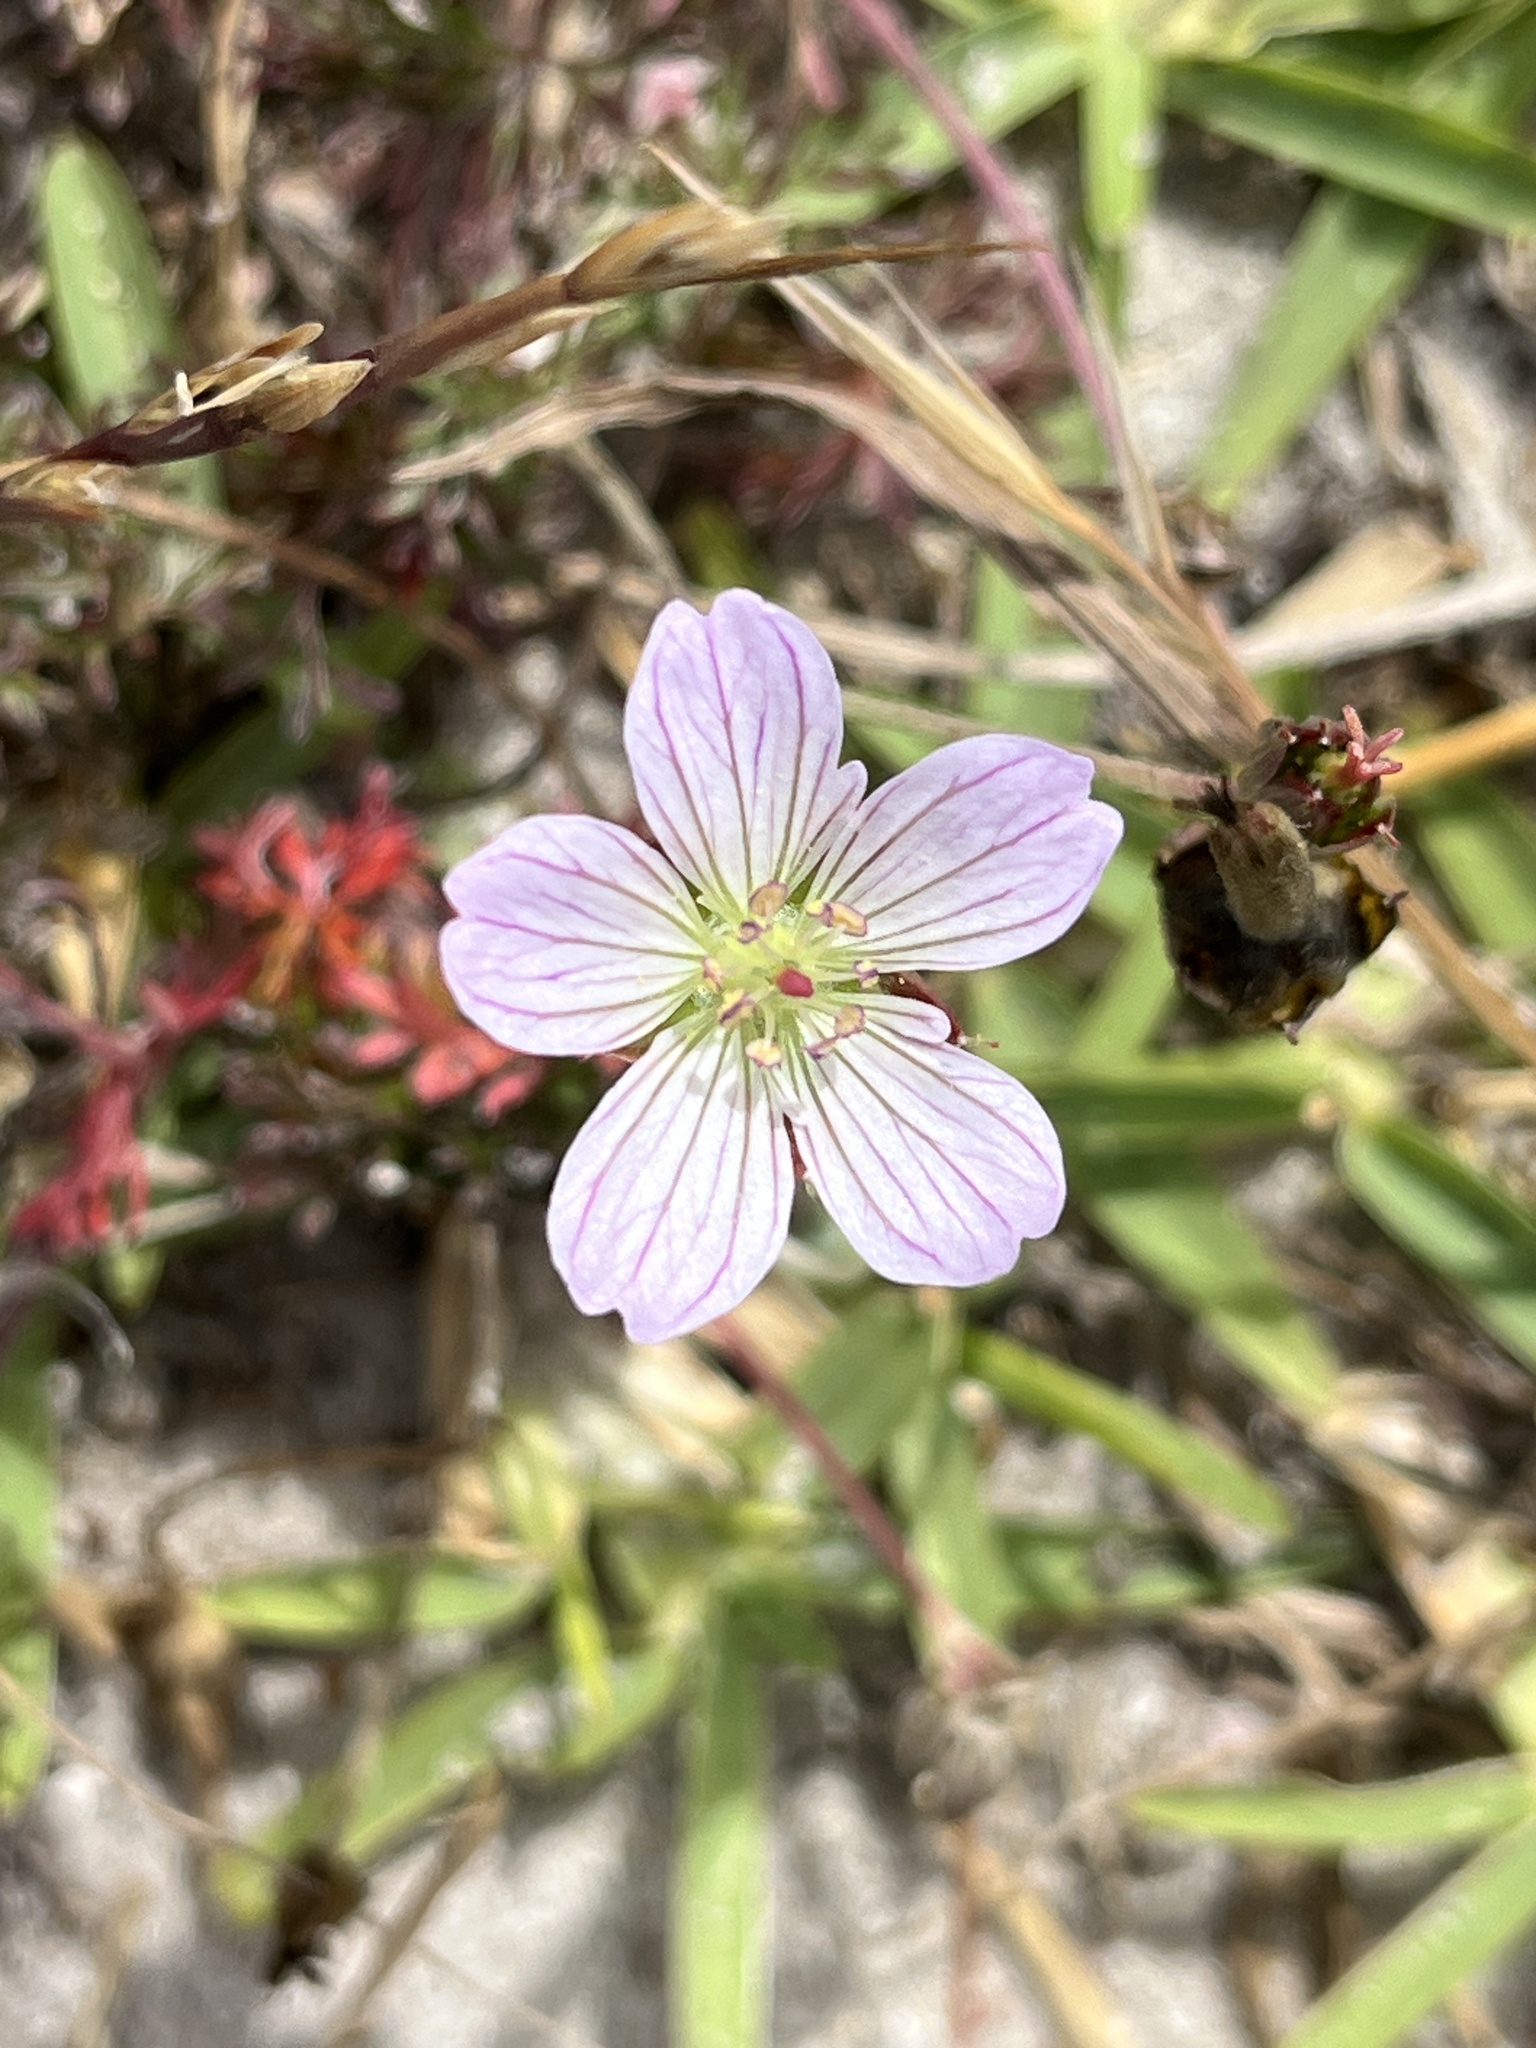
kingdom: Plantae
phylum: Tracheophyta
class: Magnoliopsida
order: Geraniales
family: Geraniaceae
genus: Geranium
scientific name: Geranium incanum
